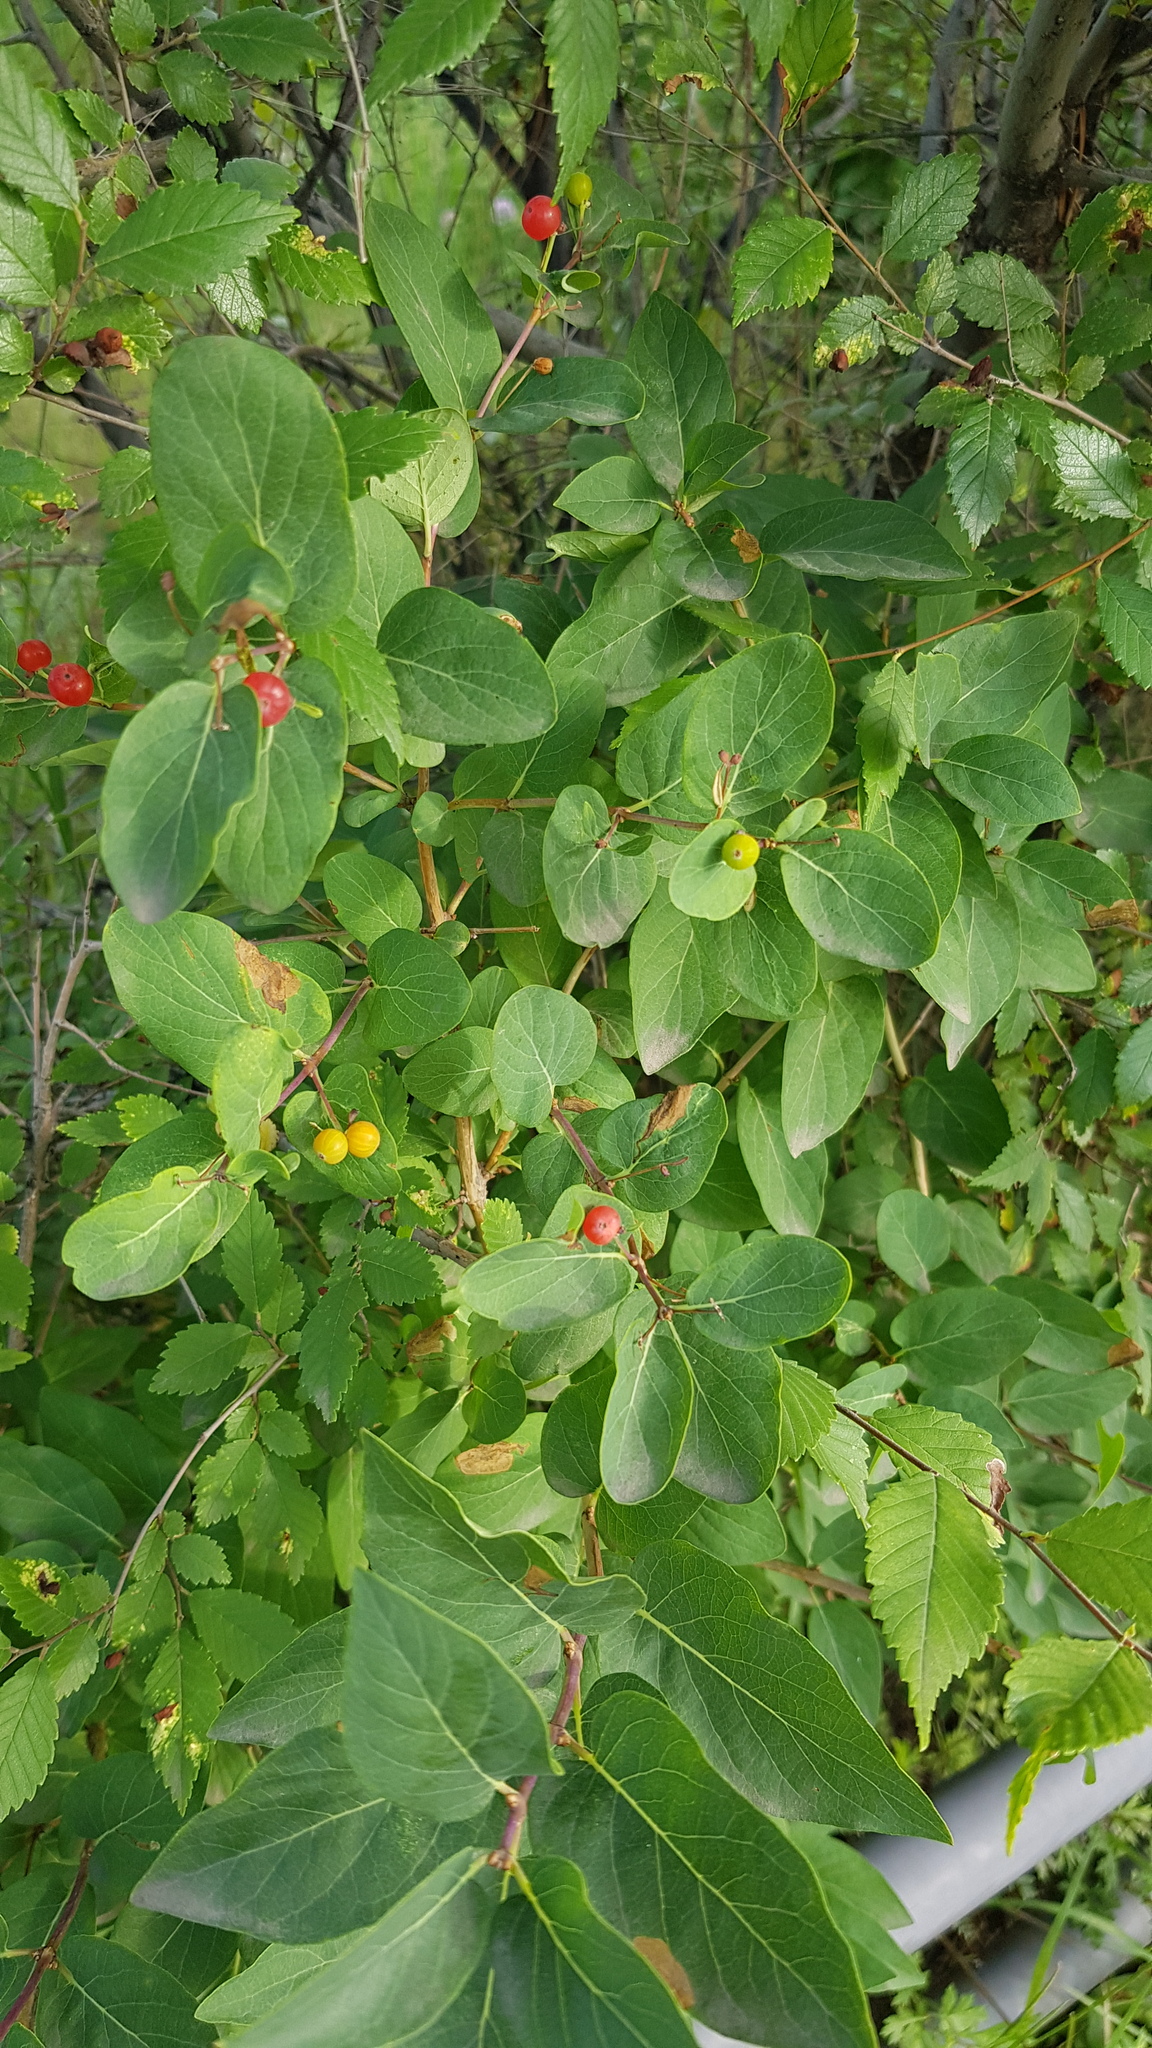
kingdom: Plantae
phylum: Tracheophyta
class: Magnoliopsida
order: Dipsacales
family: Caprifoliaceae
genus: Lonicera
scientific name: Lonicera tatarica
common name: Tatarian honeysuckle
